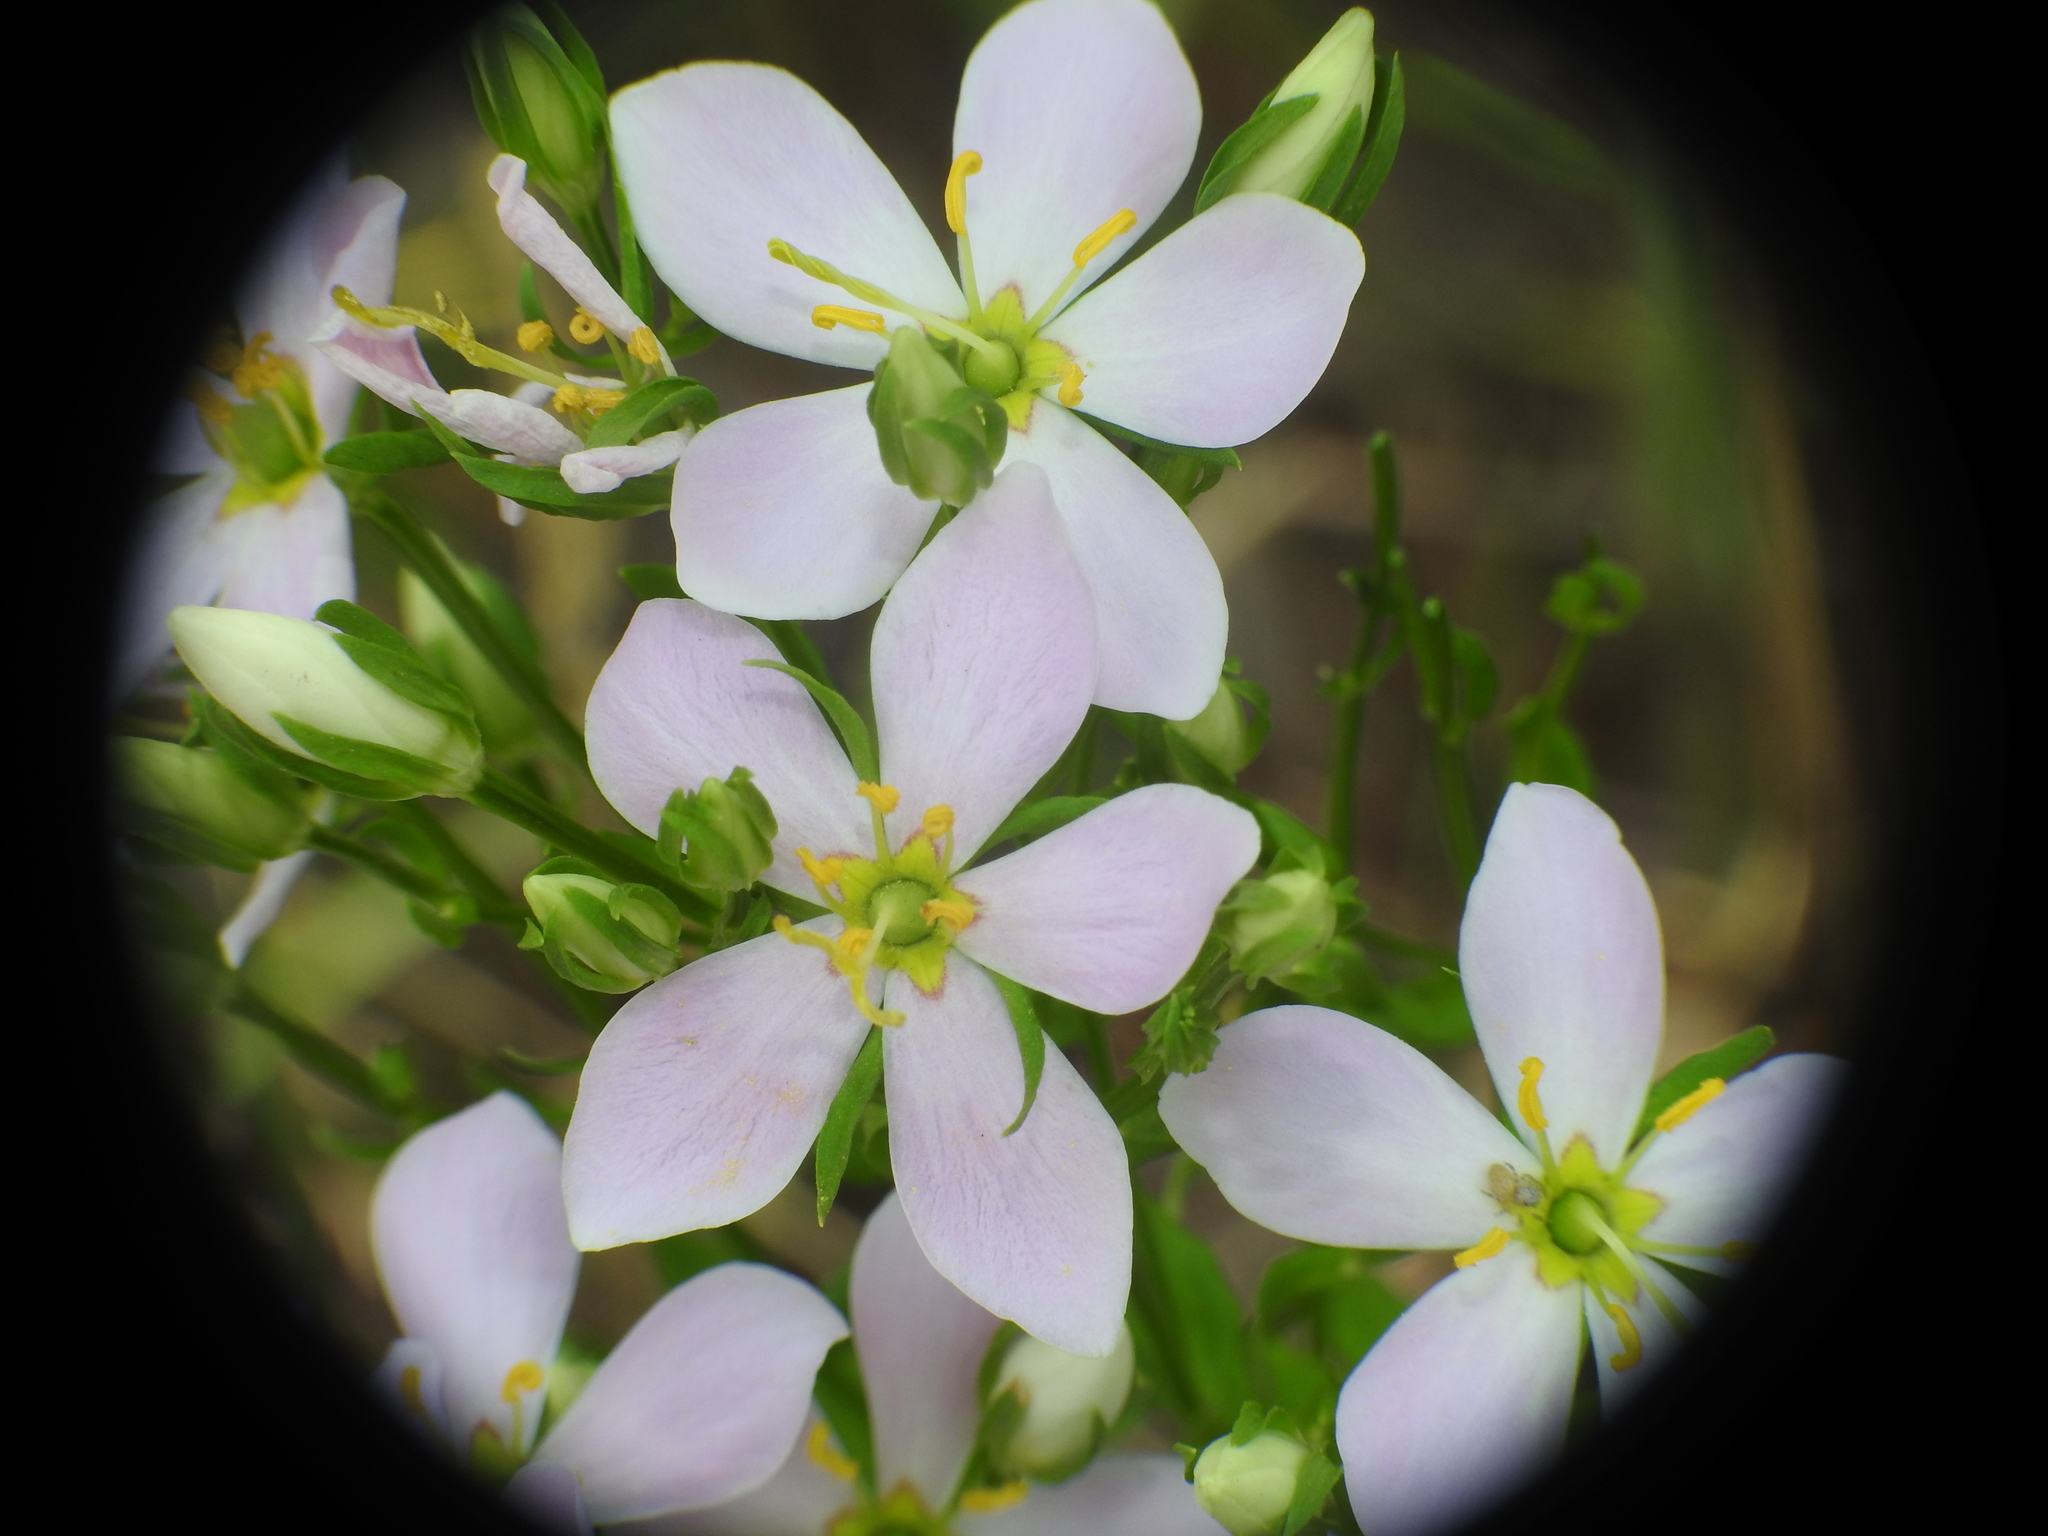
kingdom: Plantae
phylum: Tracheophyta
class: Magnoliopsida
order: Gentianales
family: Gentianaceae
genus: Sabatia
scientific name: Sabatia angularis
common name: Rose-pink
